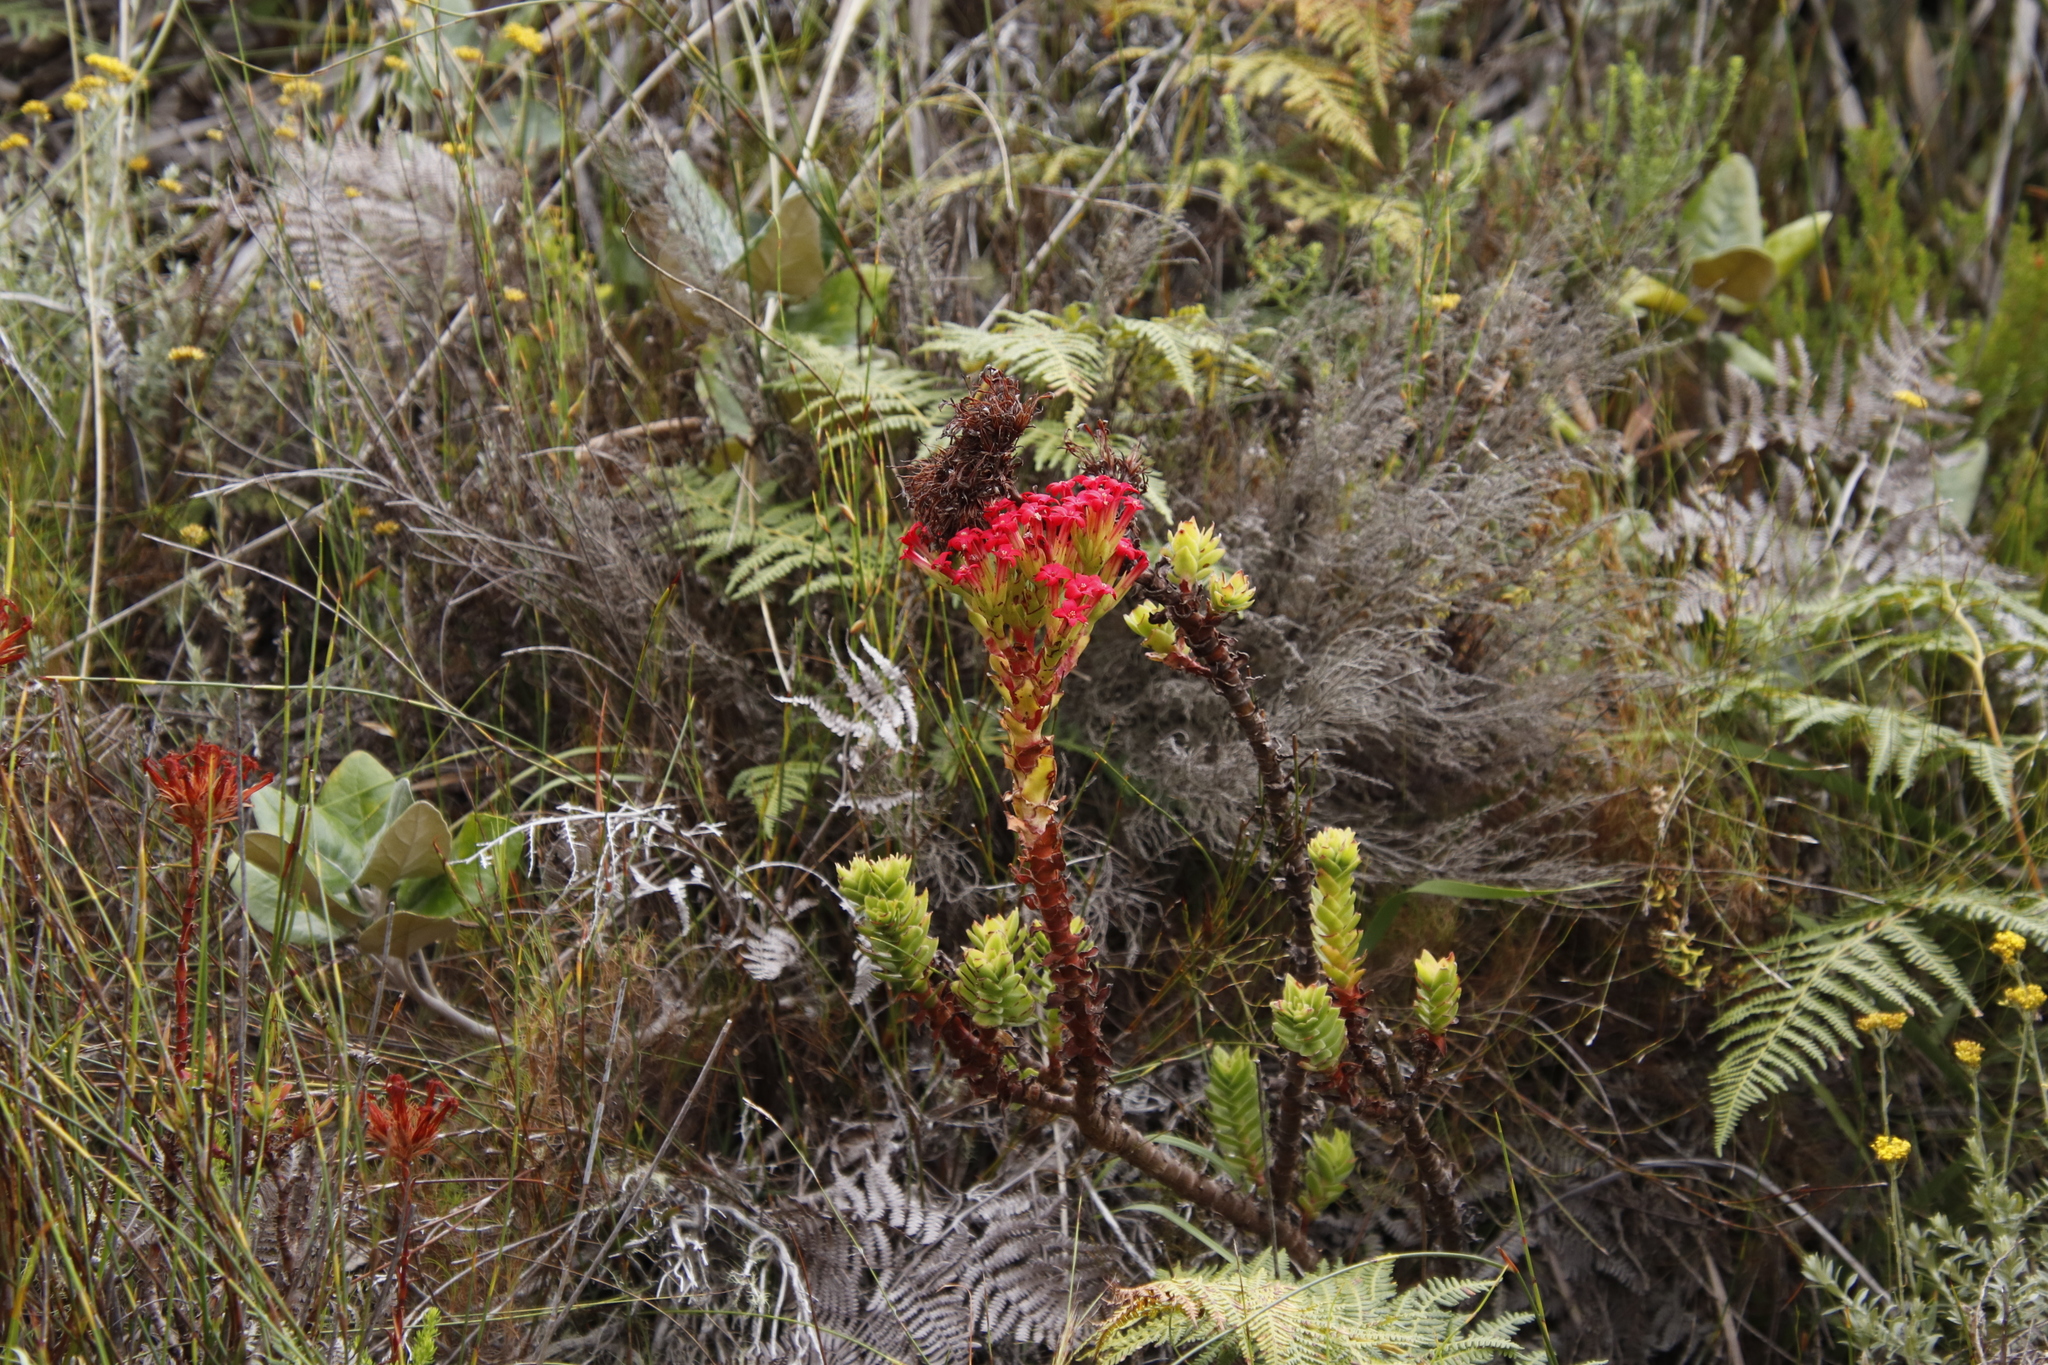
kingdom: Plantae
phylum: Tracheophyta
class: Magnoliopsida
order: Saxifragales
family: Crassulaceae
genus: Crassula
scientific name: Crassula coccinea
